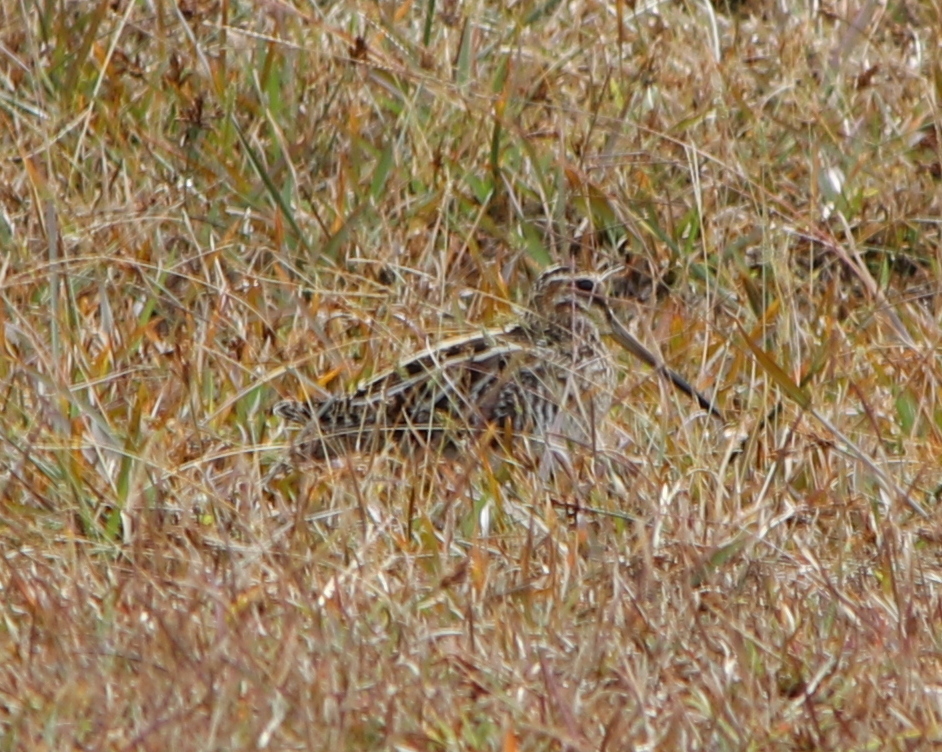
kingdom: Animalia
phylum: Chordata
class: Aves
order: Charadriiformes
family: Scolopacidae
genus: Gallinago
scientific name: Gallinago delicata
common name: Wilson's snipe
